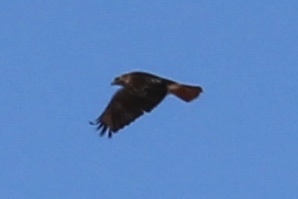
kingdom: Animalia
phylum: Chordata
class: Aves
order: Accipitriformes
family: Accipitridae
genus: Buteo
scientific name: Buteo jamaicensis
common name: Red-tailed hawk
